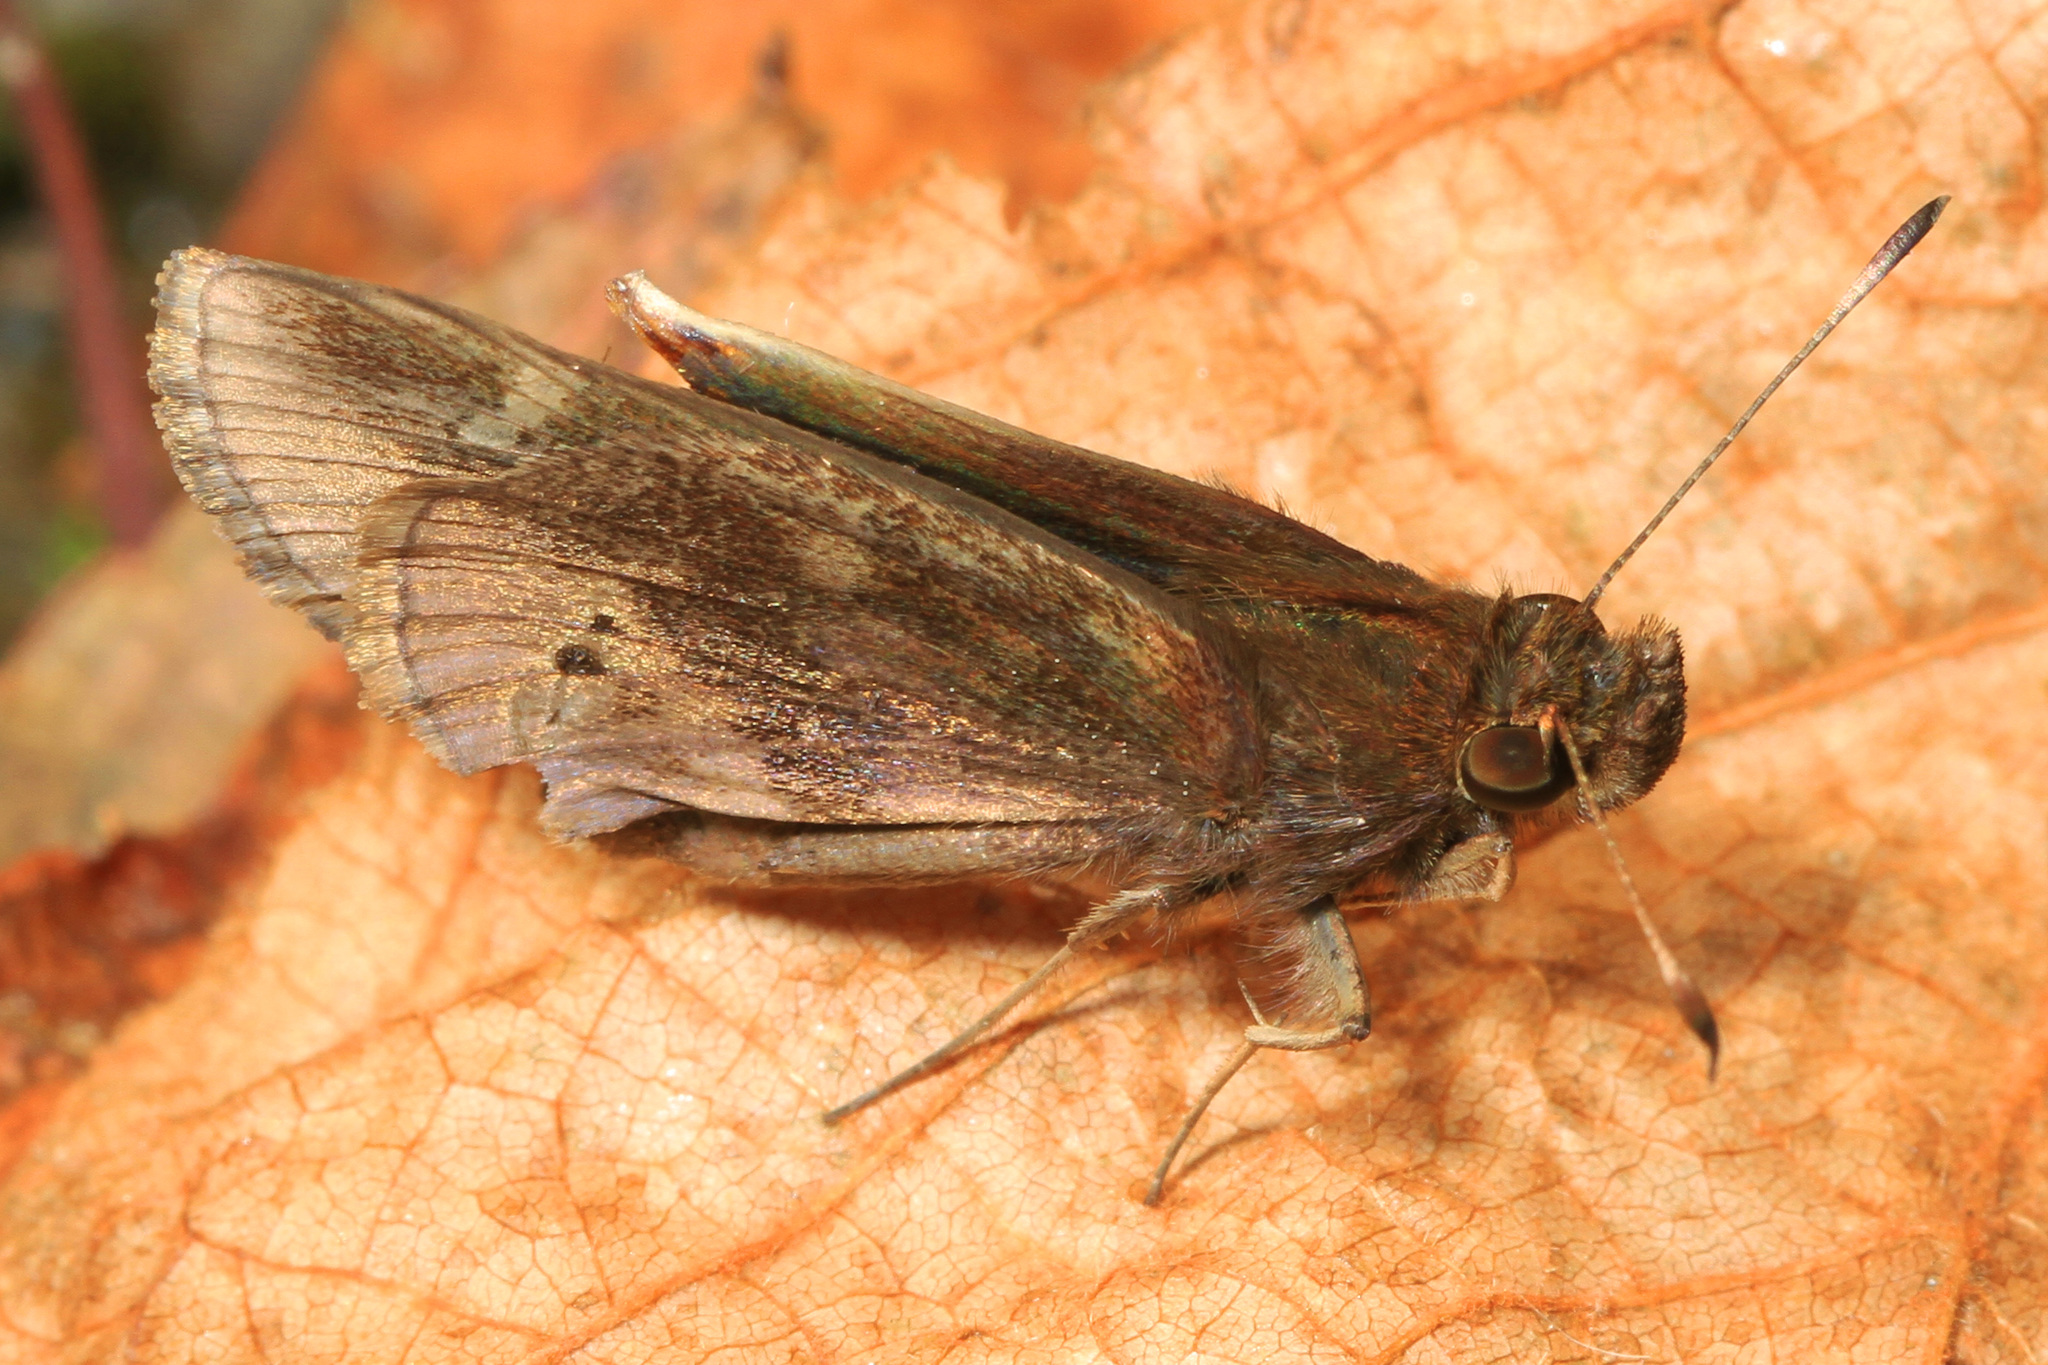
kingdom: Animalia
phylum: Arthropoda
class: Insecta
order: Lepidoptera
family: Hesperiidae
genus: Lerema
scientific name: Lerema accius
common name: Clouded skipper
